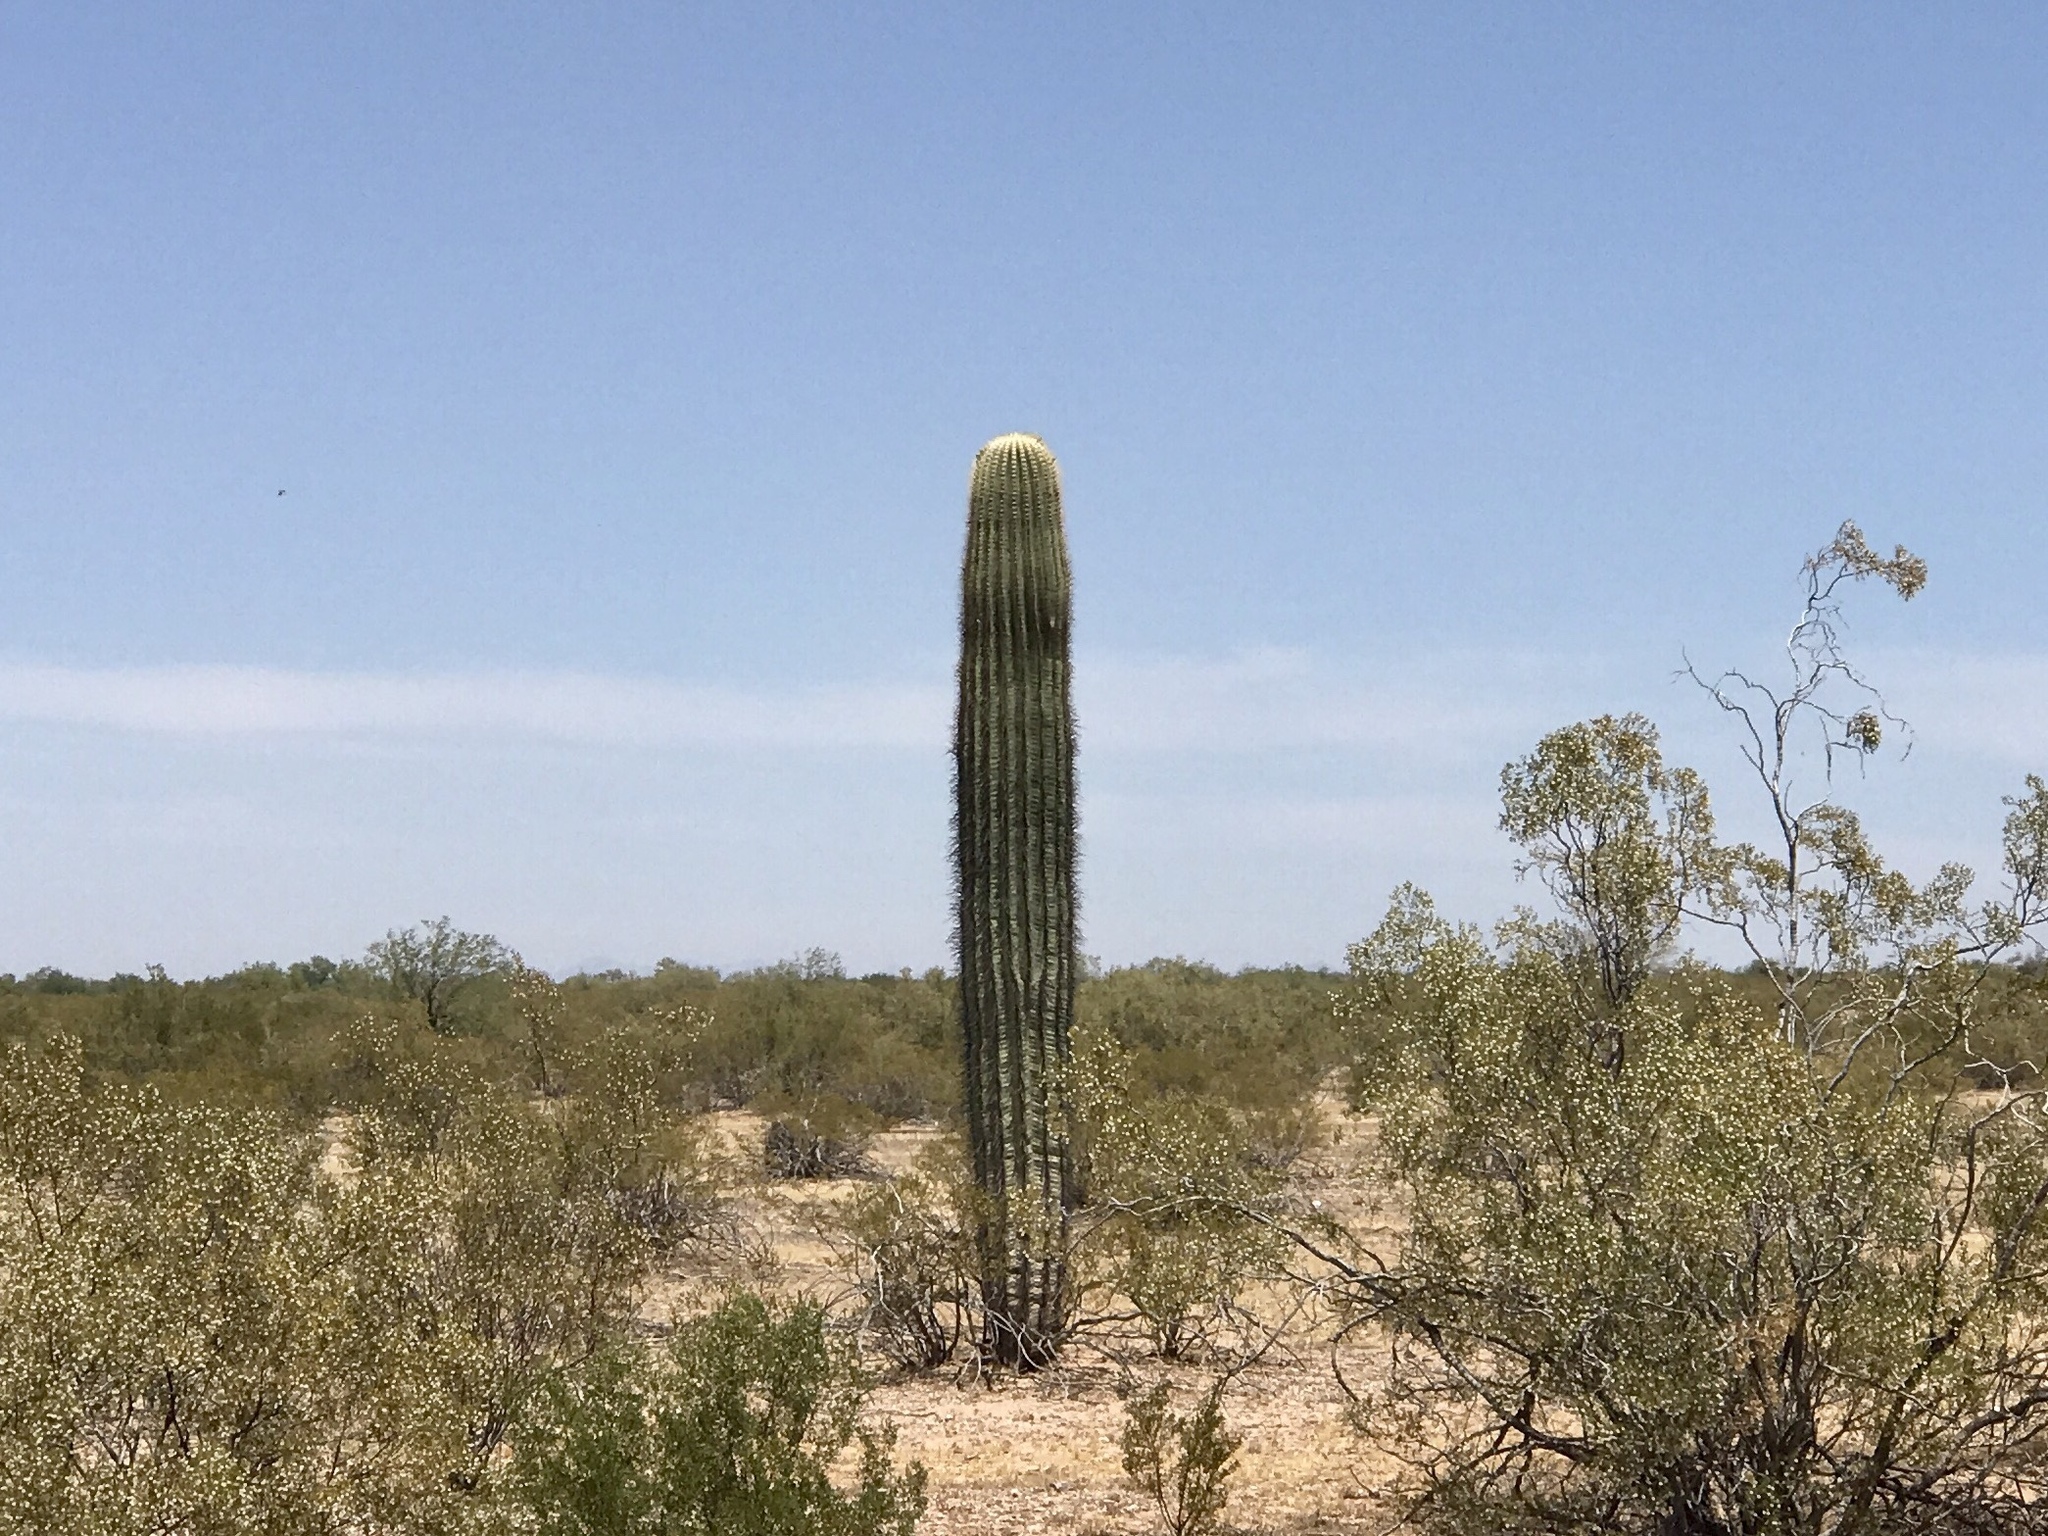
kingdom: Plantae
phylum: Tracheophyta
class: Magnoliopsida
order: Caryophyllales
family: Cactaceae
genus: Carnegiea
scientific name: Carnegiea gigantea
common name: Saguaro
